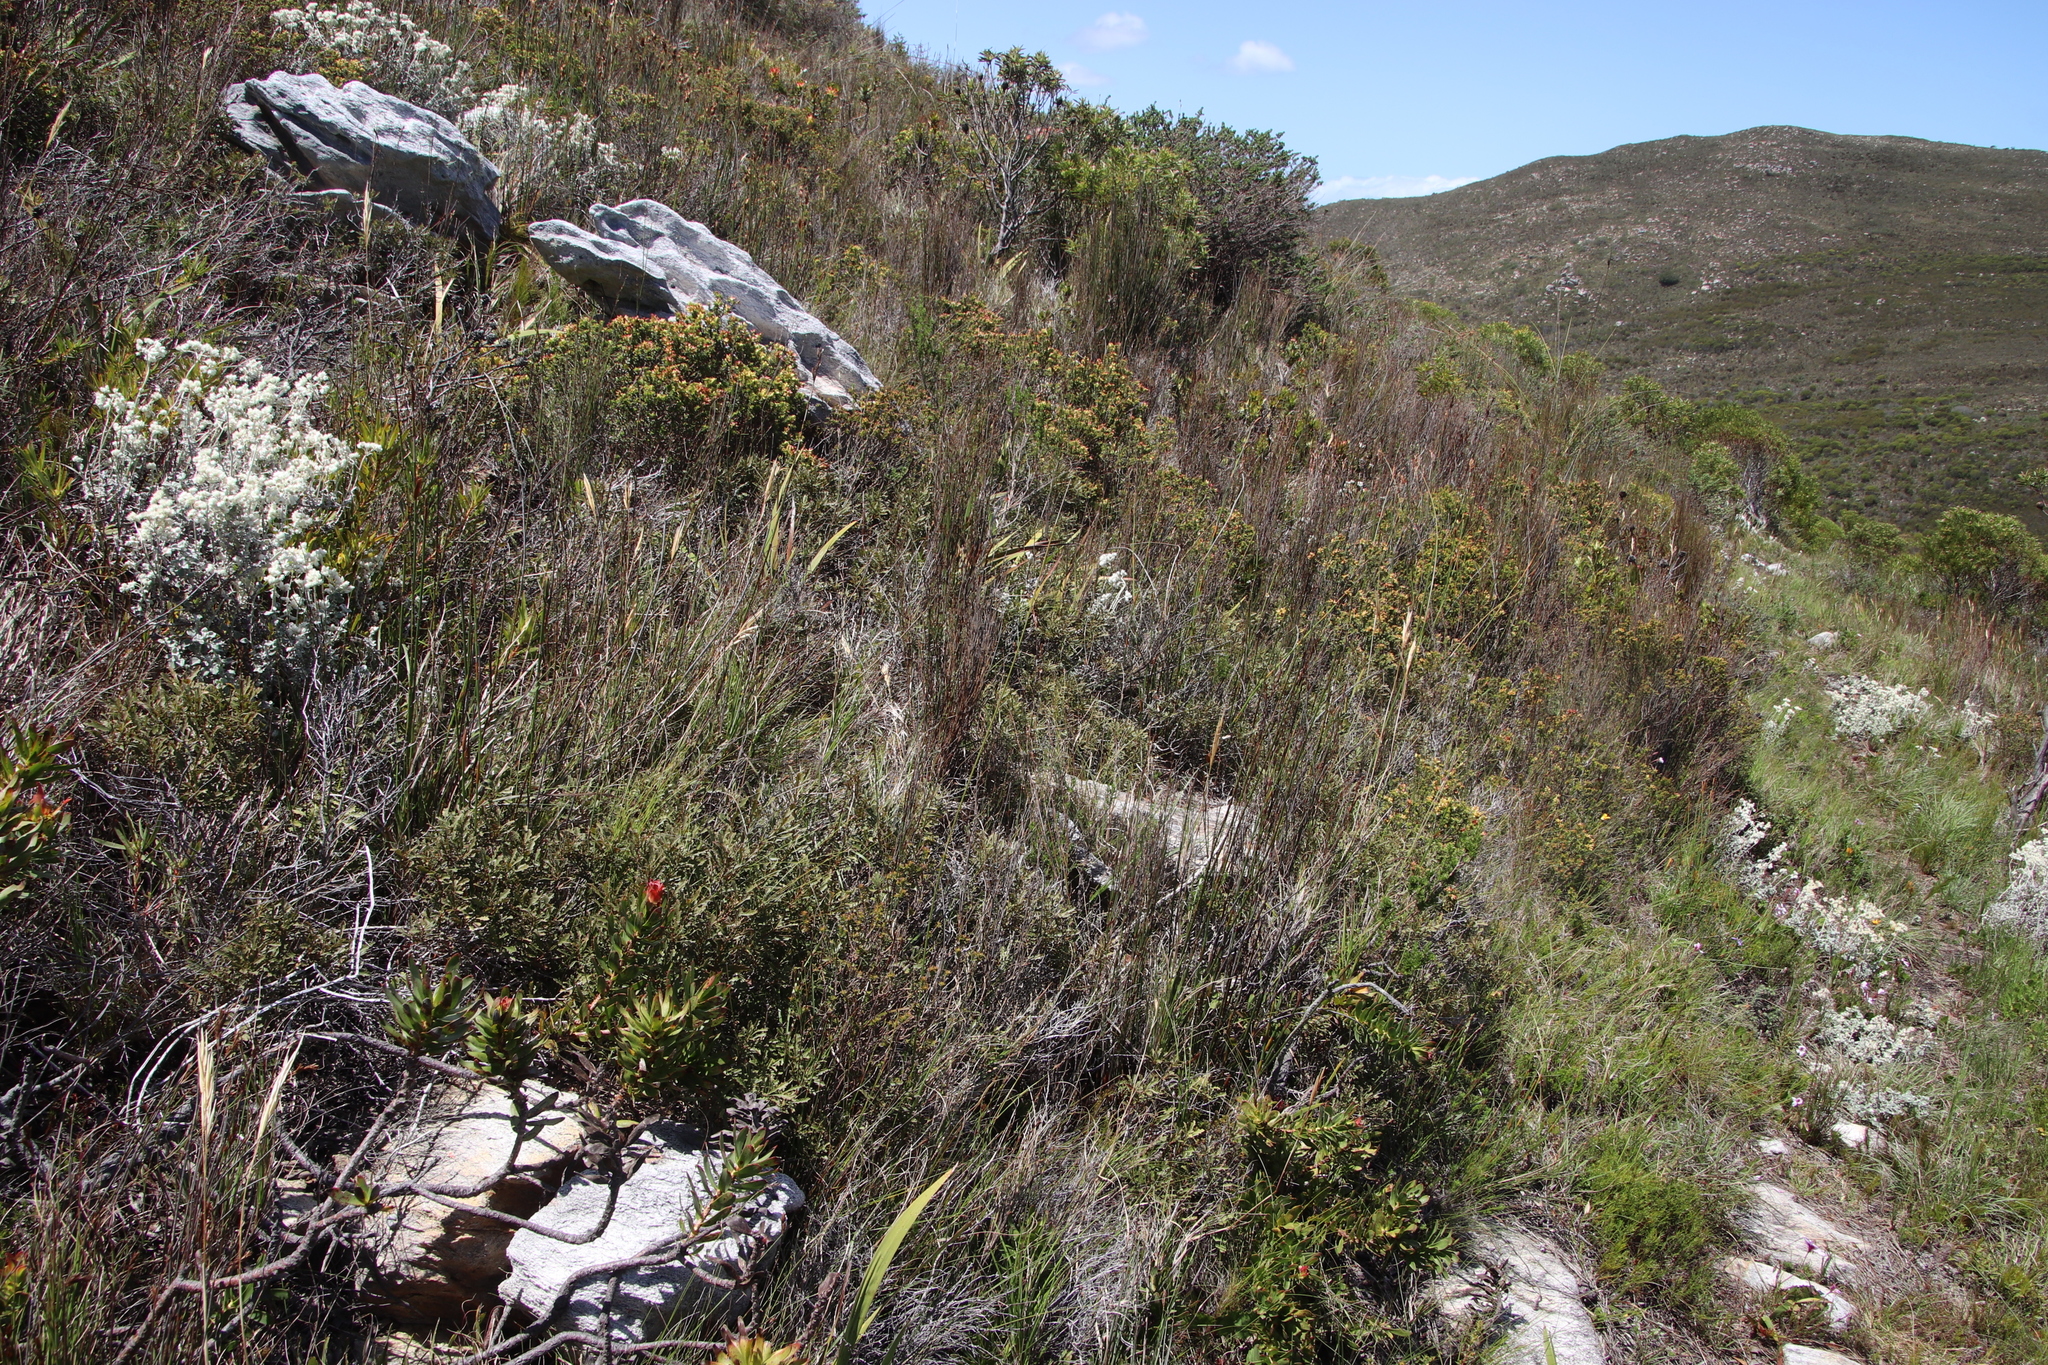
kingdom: Plantae
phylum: Tracheophyta
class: Magnoliopsida
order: Fagales
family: Myricaceae
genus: Morella
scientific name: Morella quercifolia
